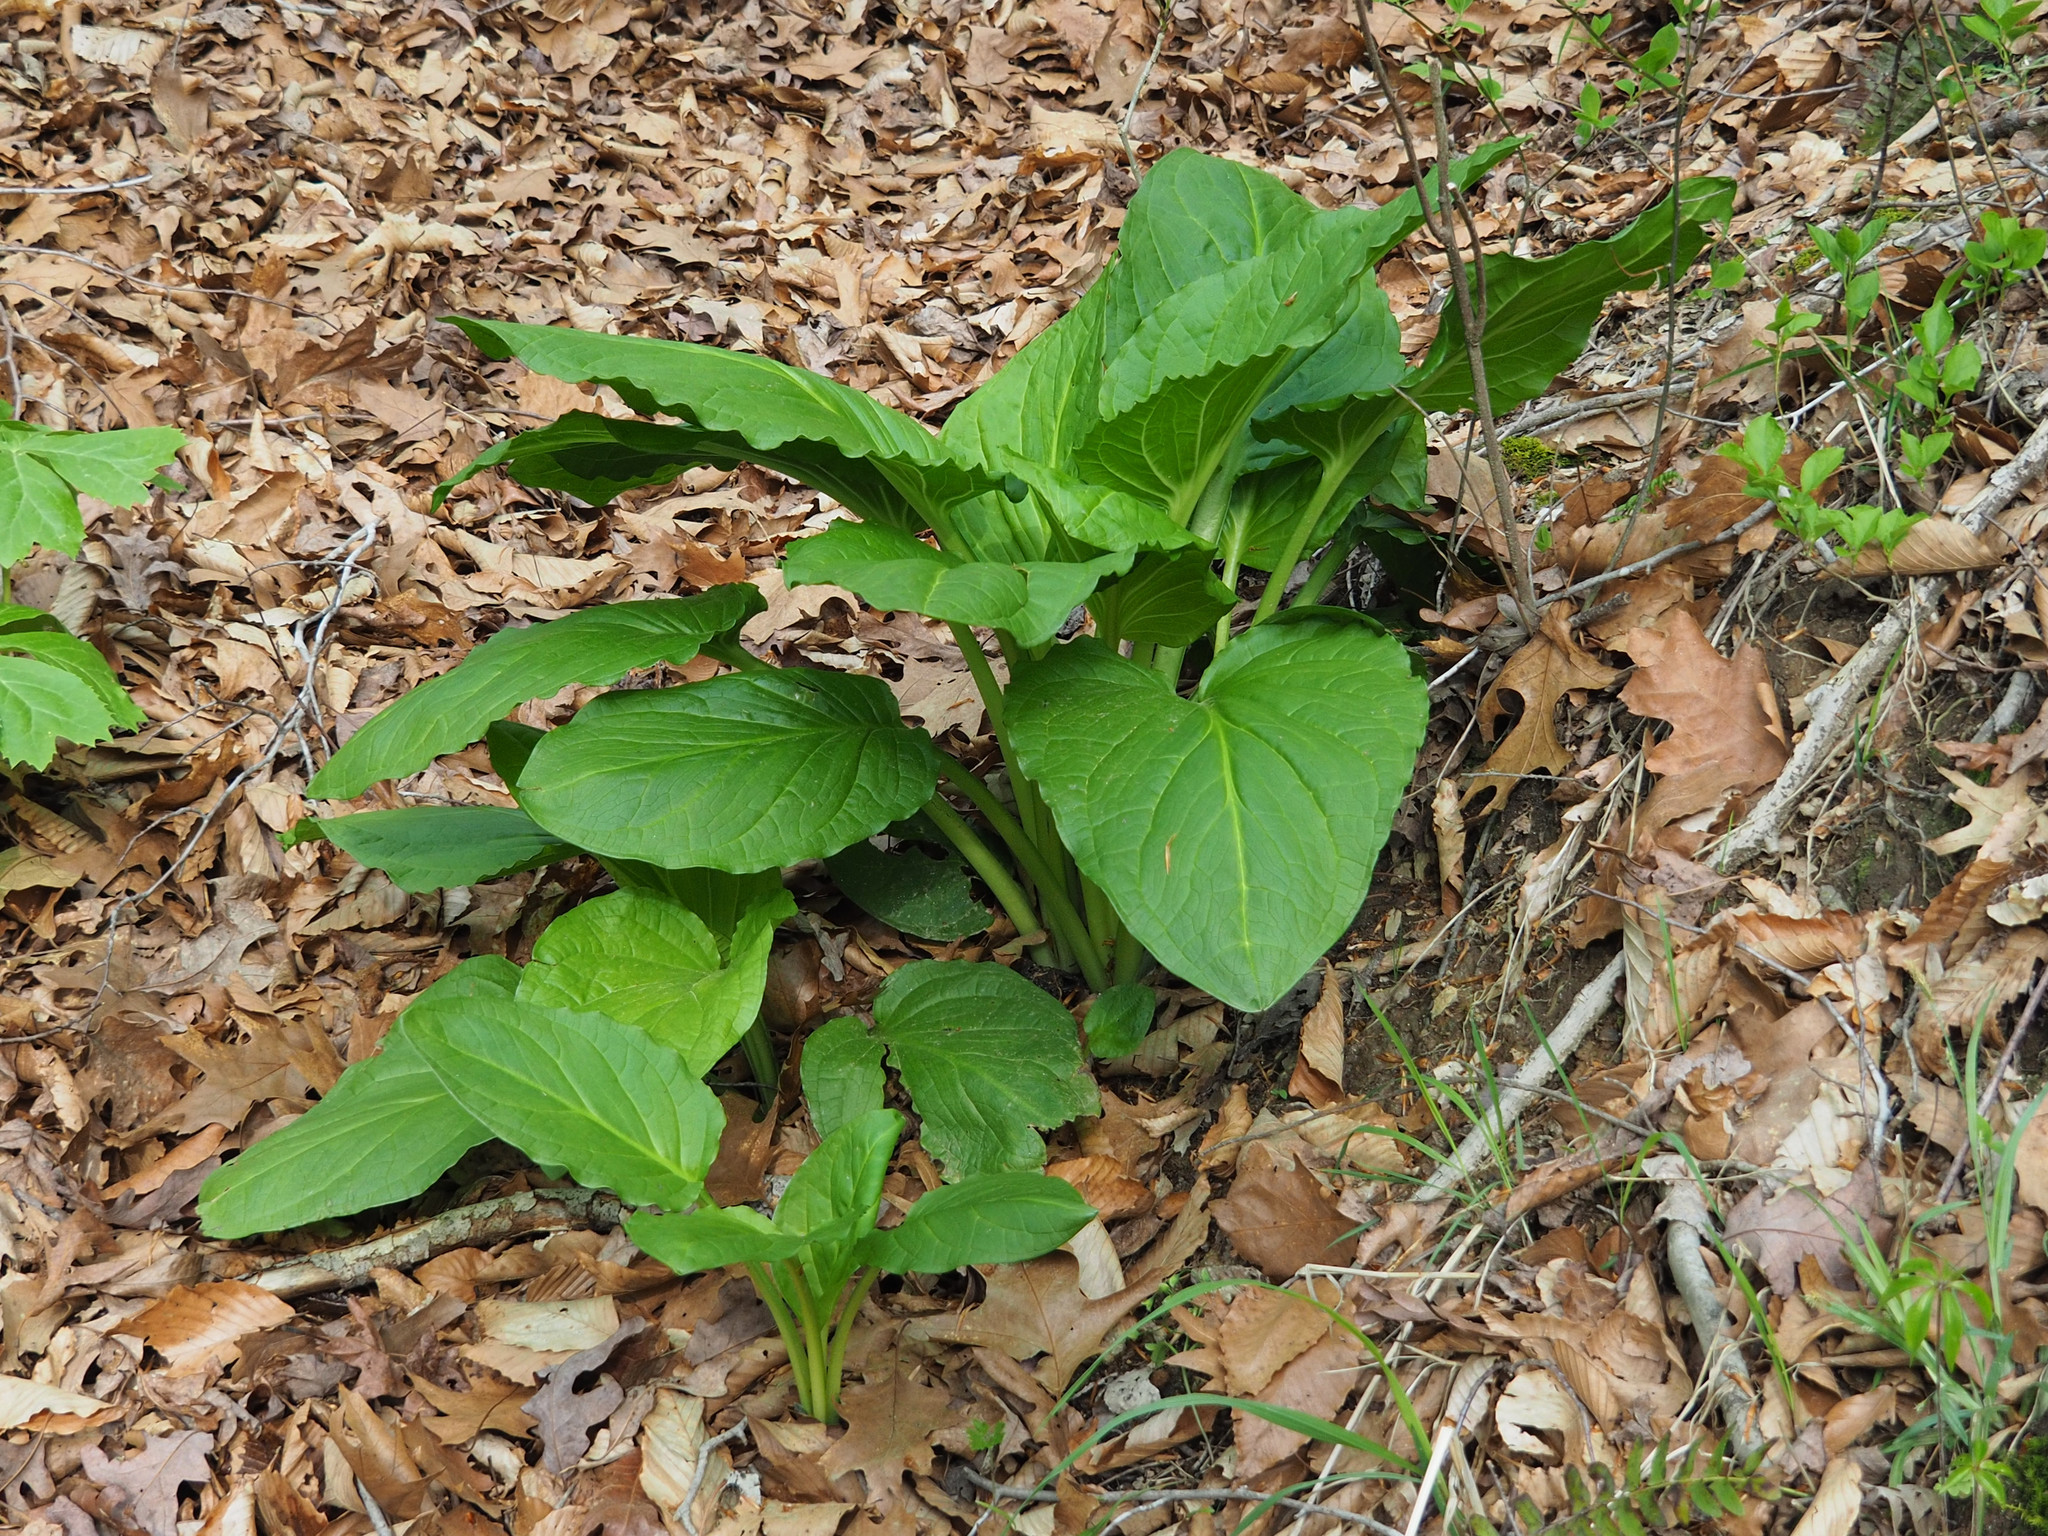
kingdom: Plantae
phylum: Tracheophyta
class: Liliopsida
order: Alismatales
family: Araceae
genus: Symplocarpus
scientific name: Symplocarpus foetidus
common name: Eastern skunk cabbage
